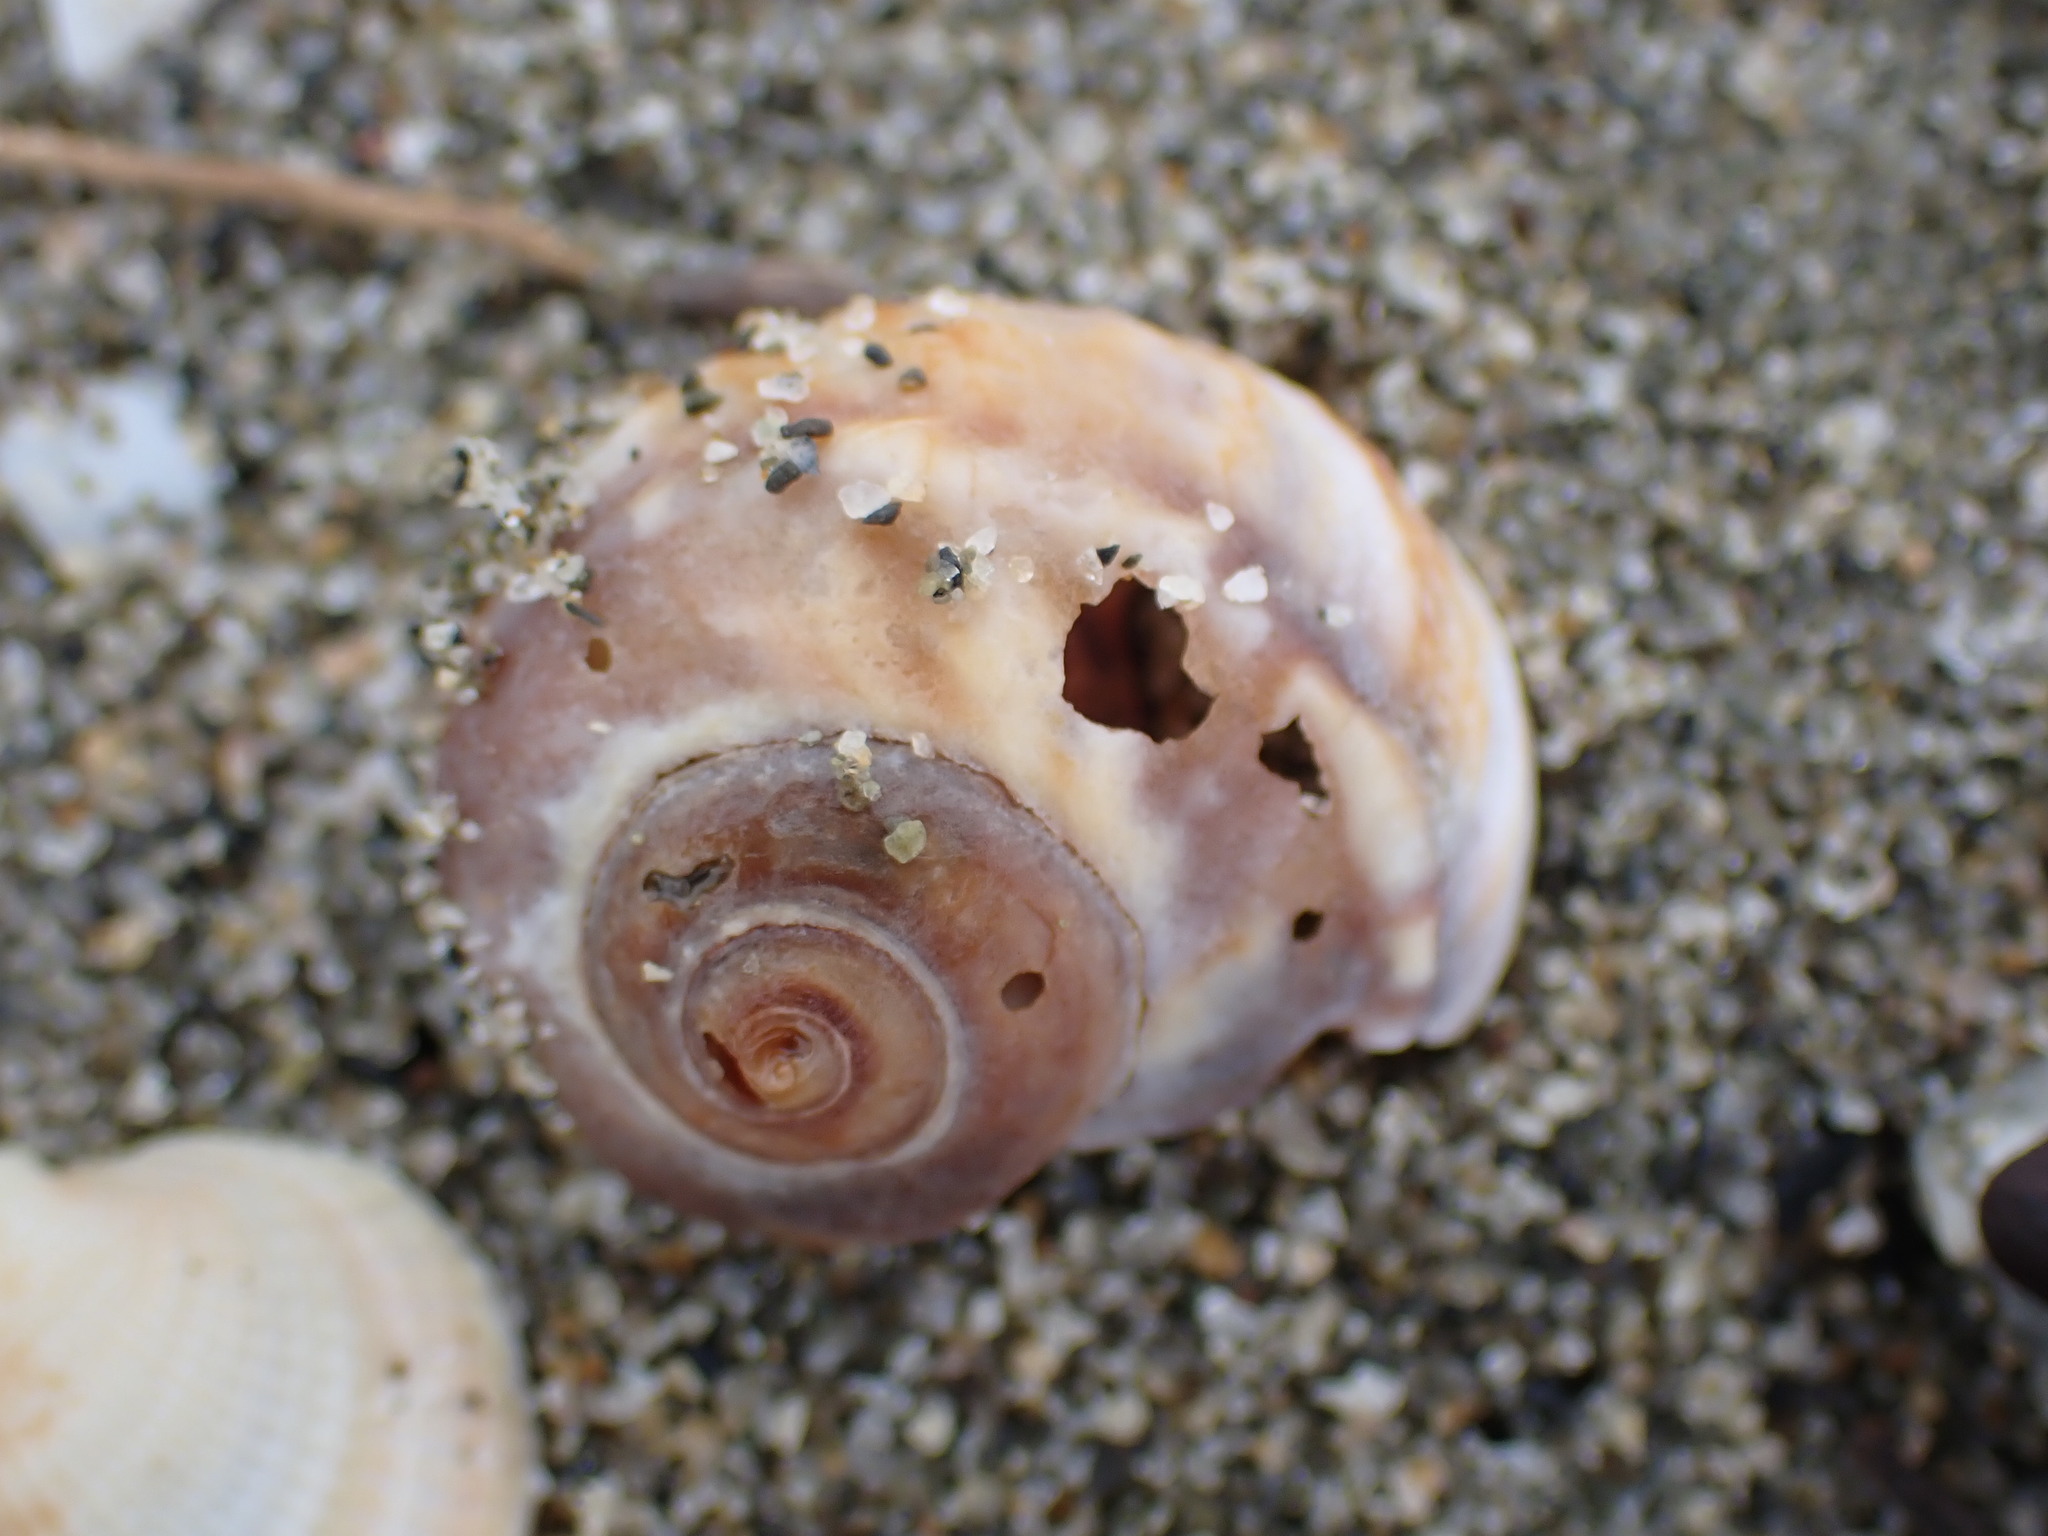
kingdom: Animalia
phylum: Mollusca
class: Gastropoda
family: Amphibolidae
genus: Amphibola
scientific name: Amphibola crenata
